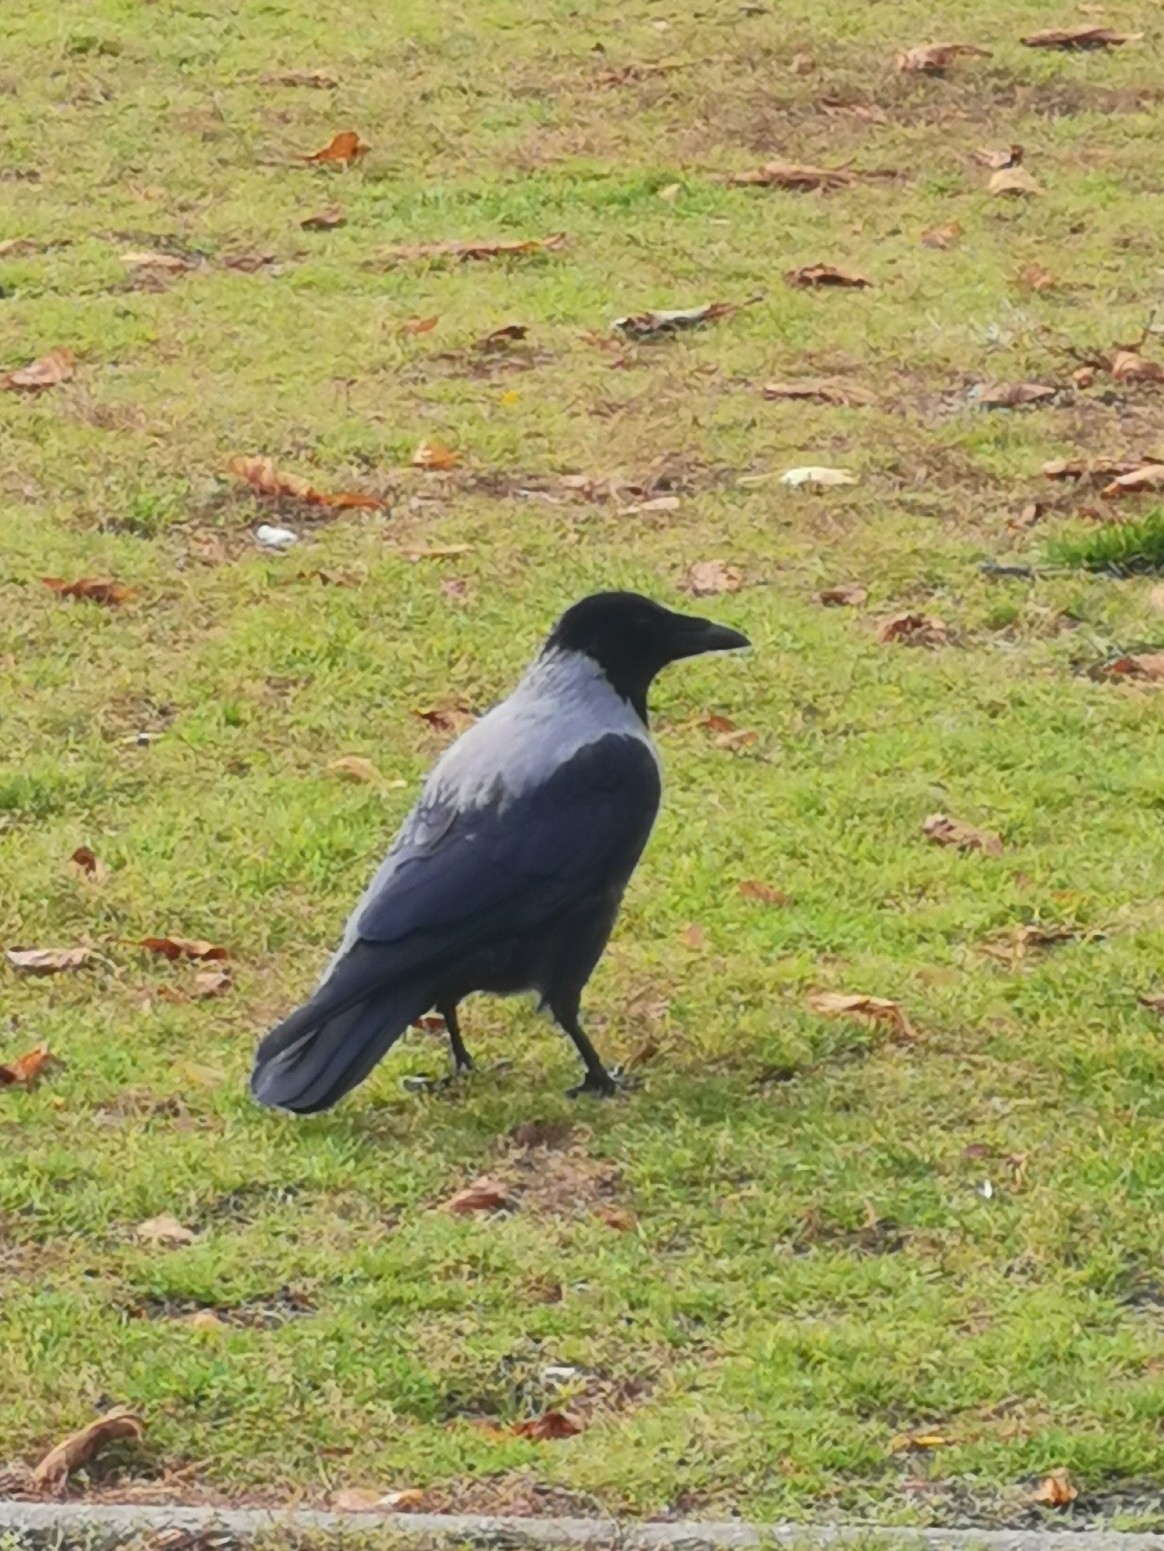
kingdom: Animalia
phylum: Chordata
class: Aves
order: Passeriformes
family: Corvidae
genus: Corvus
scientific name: Corvus
